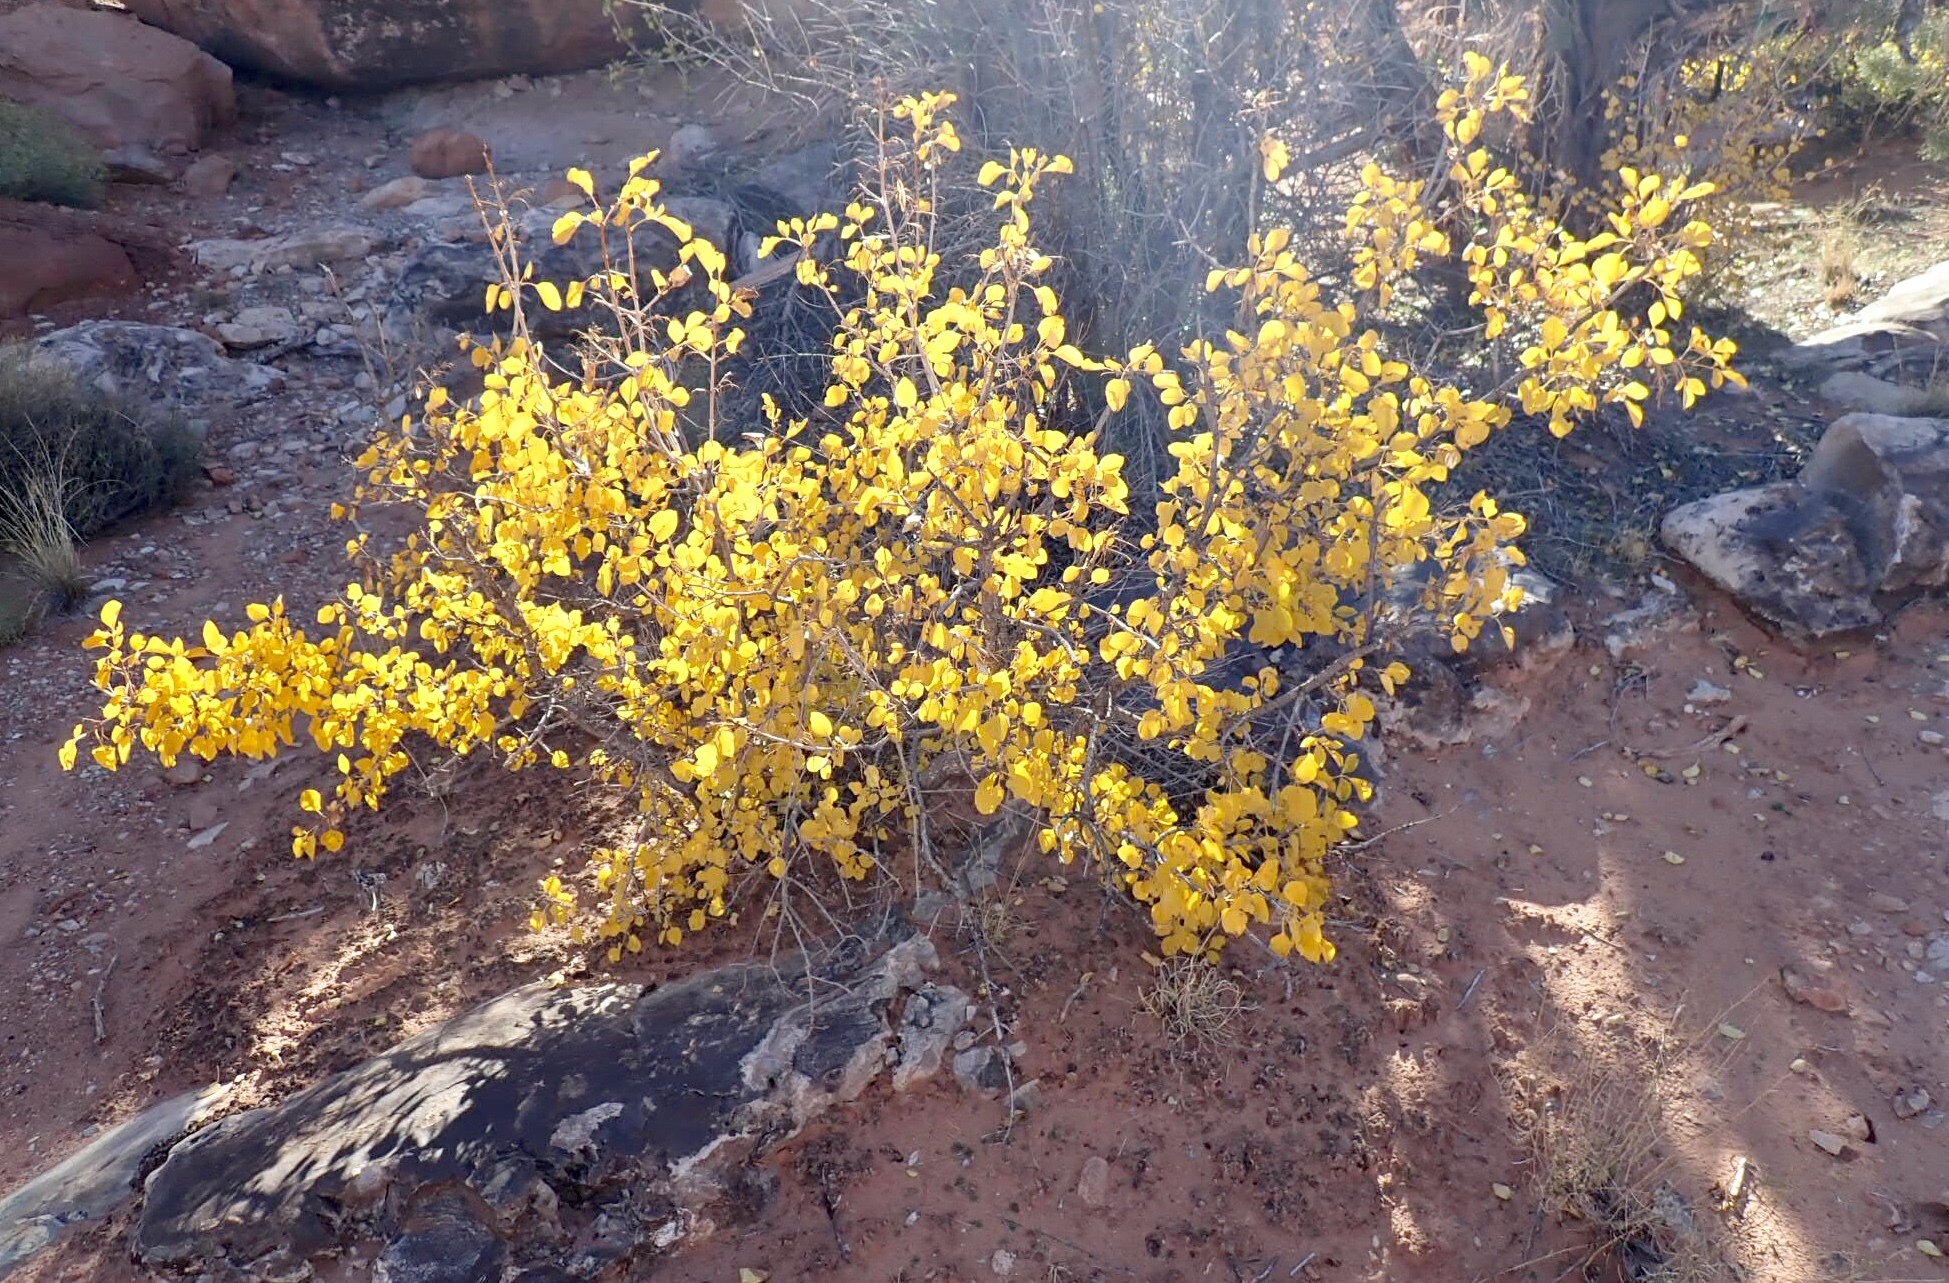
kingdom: Plantae
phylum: Tracheophyta
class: Magnoliopsida
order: Lamiales
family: Oleaceae
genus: Fraxinus
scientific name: Fraxinus anomala
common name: Utah ash
